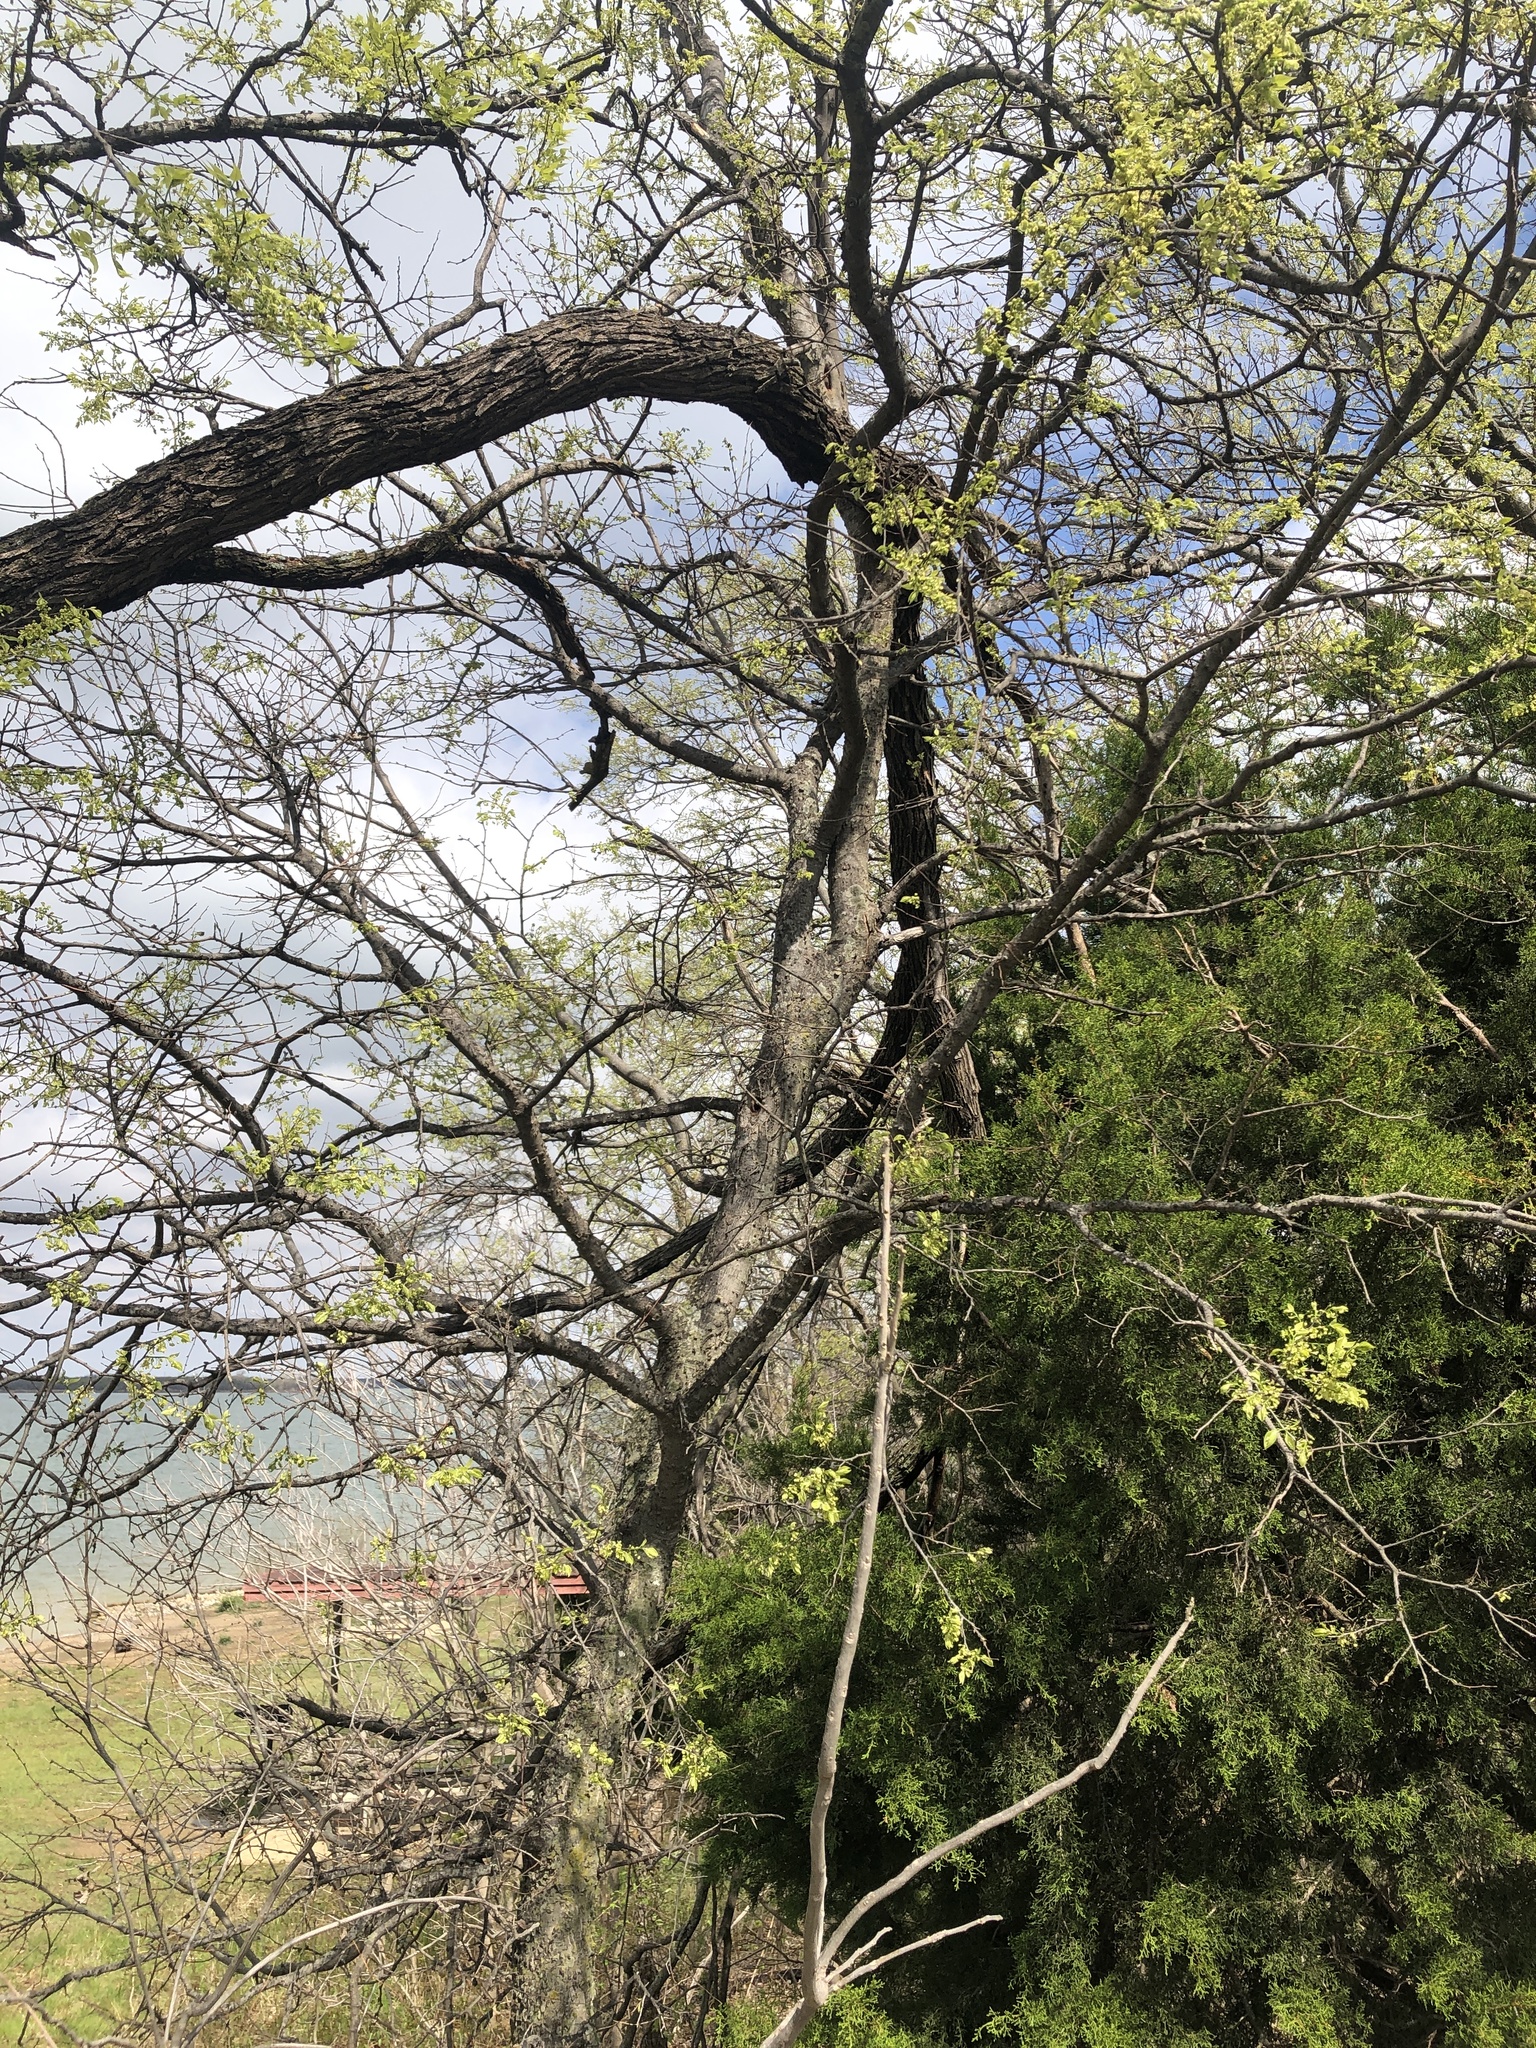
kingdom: Plantae
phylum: Tracheophyta
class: Magnoliopsida
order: Rosales
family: Cannabaceae
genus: Celtis
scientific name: Celtis laevigata
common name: Sugarberry
